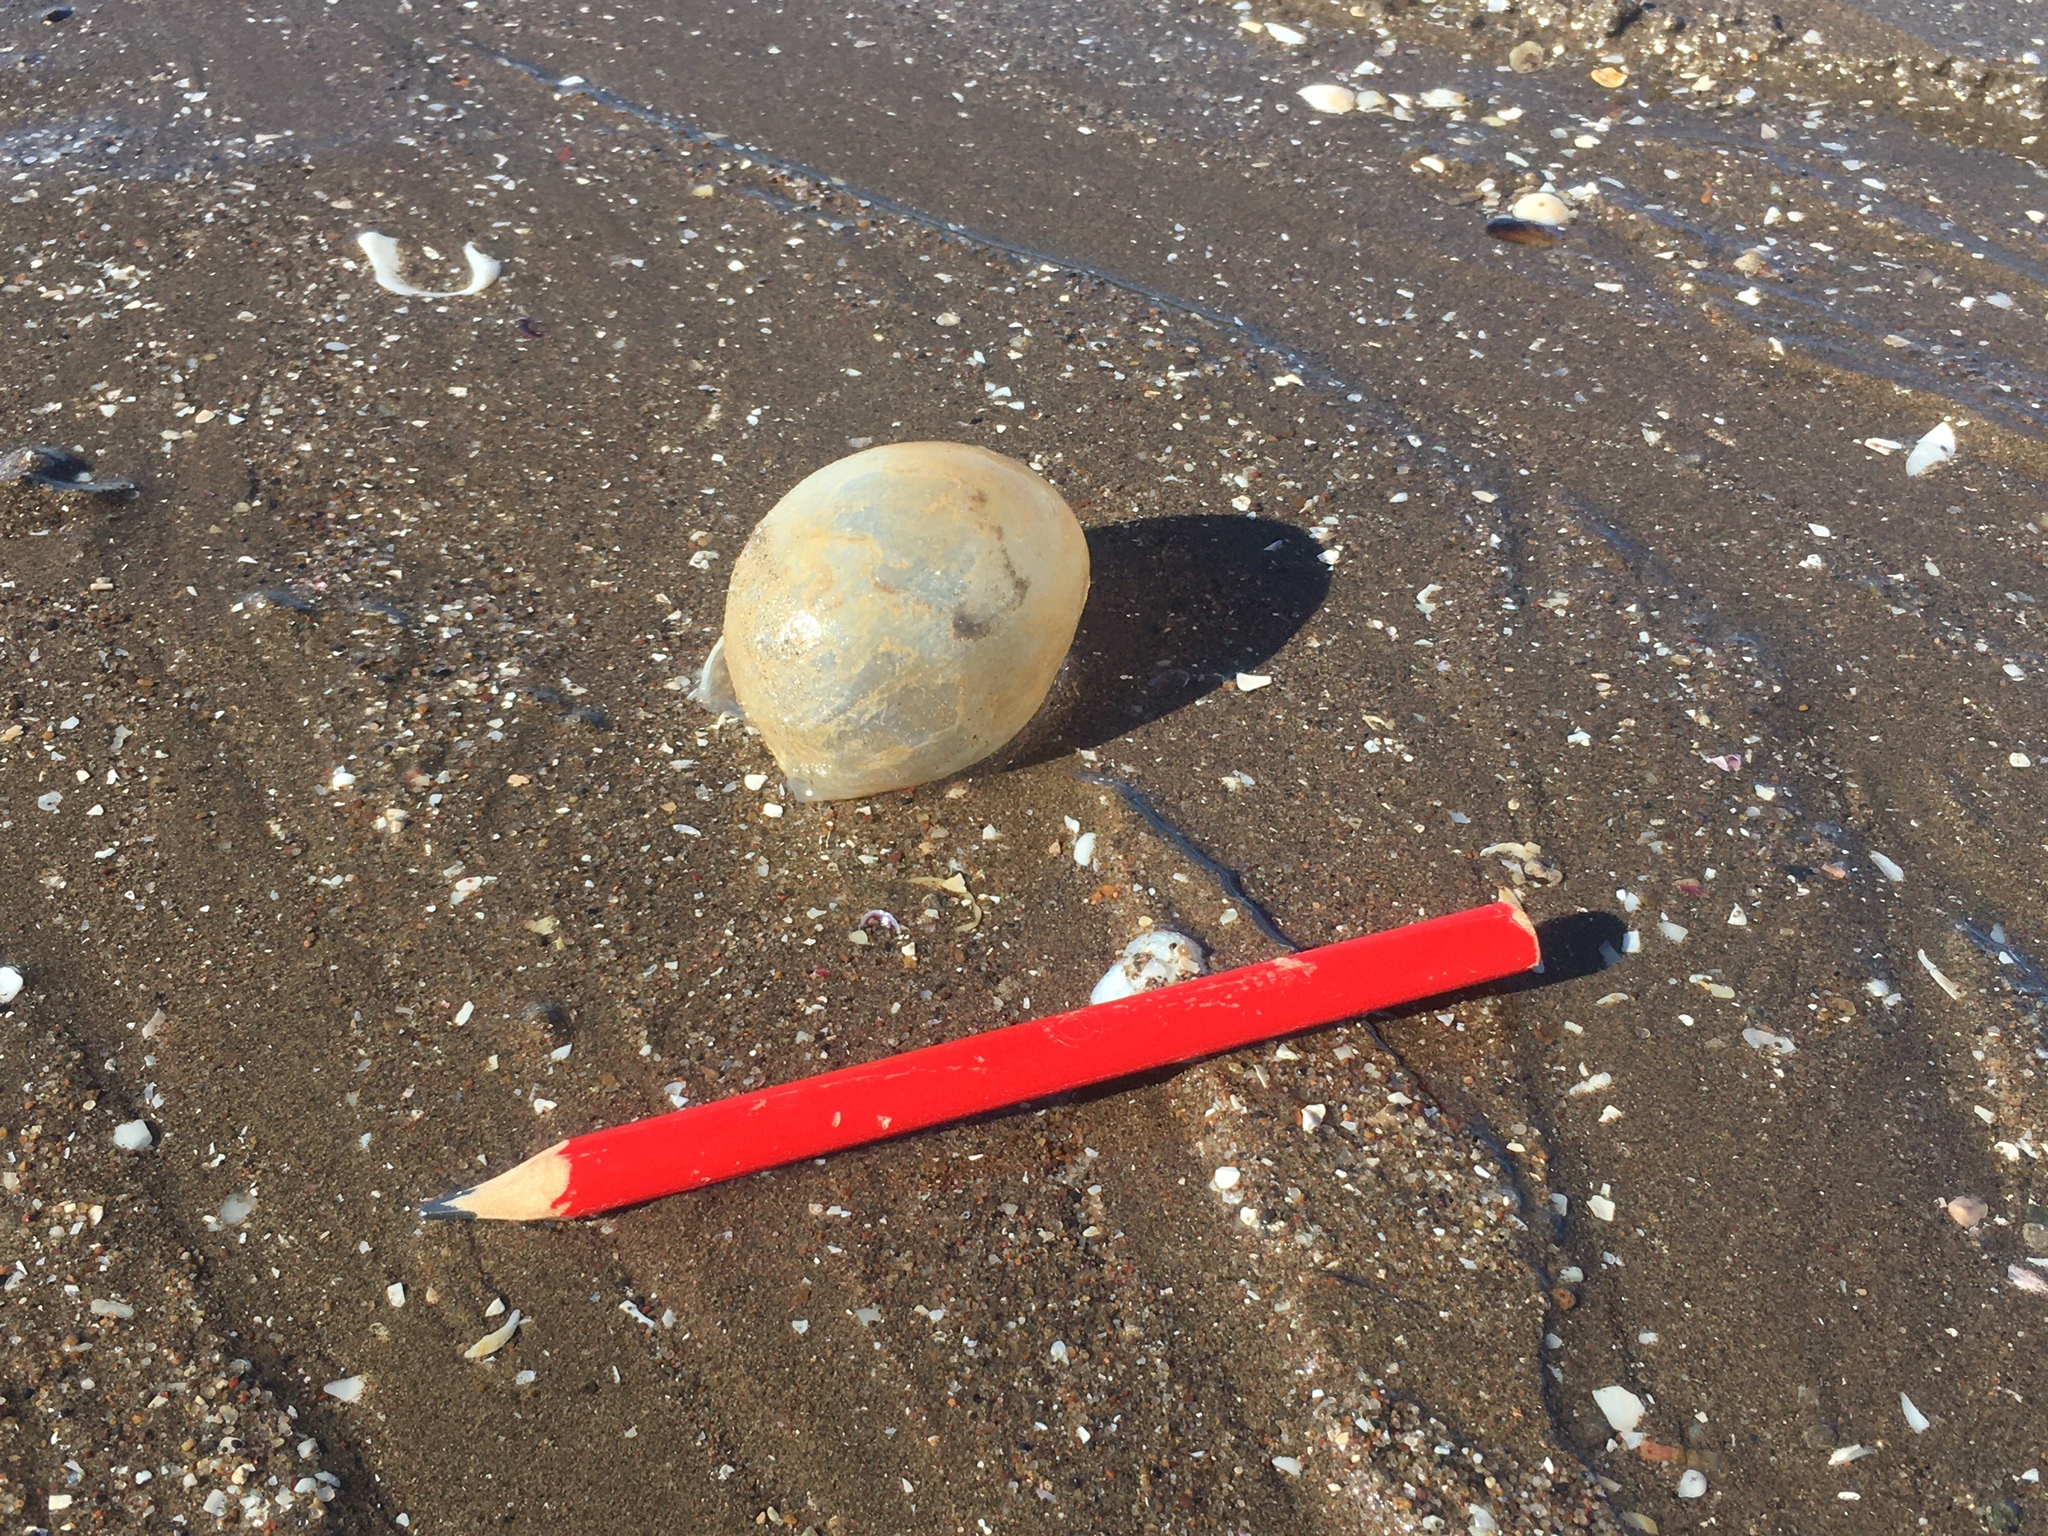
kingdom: Animalia
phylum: Mollusca
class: Gastropoda
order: Neogastropoda
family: Volutidae
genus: Pachycymbiola
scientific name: Pachycymbiola brasiliana
